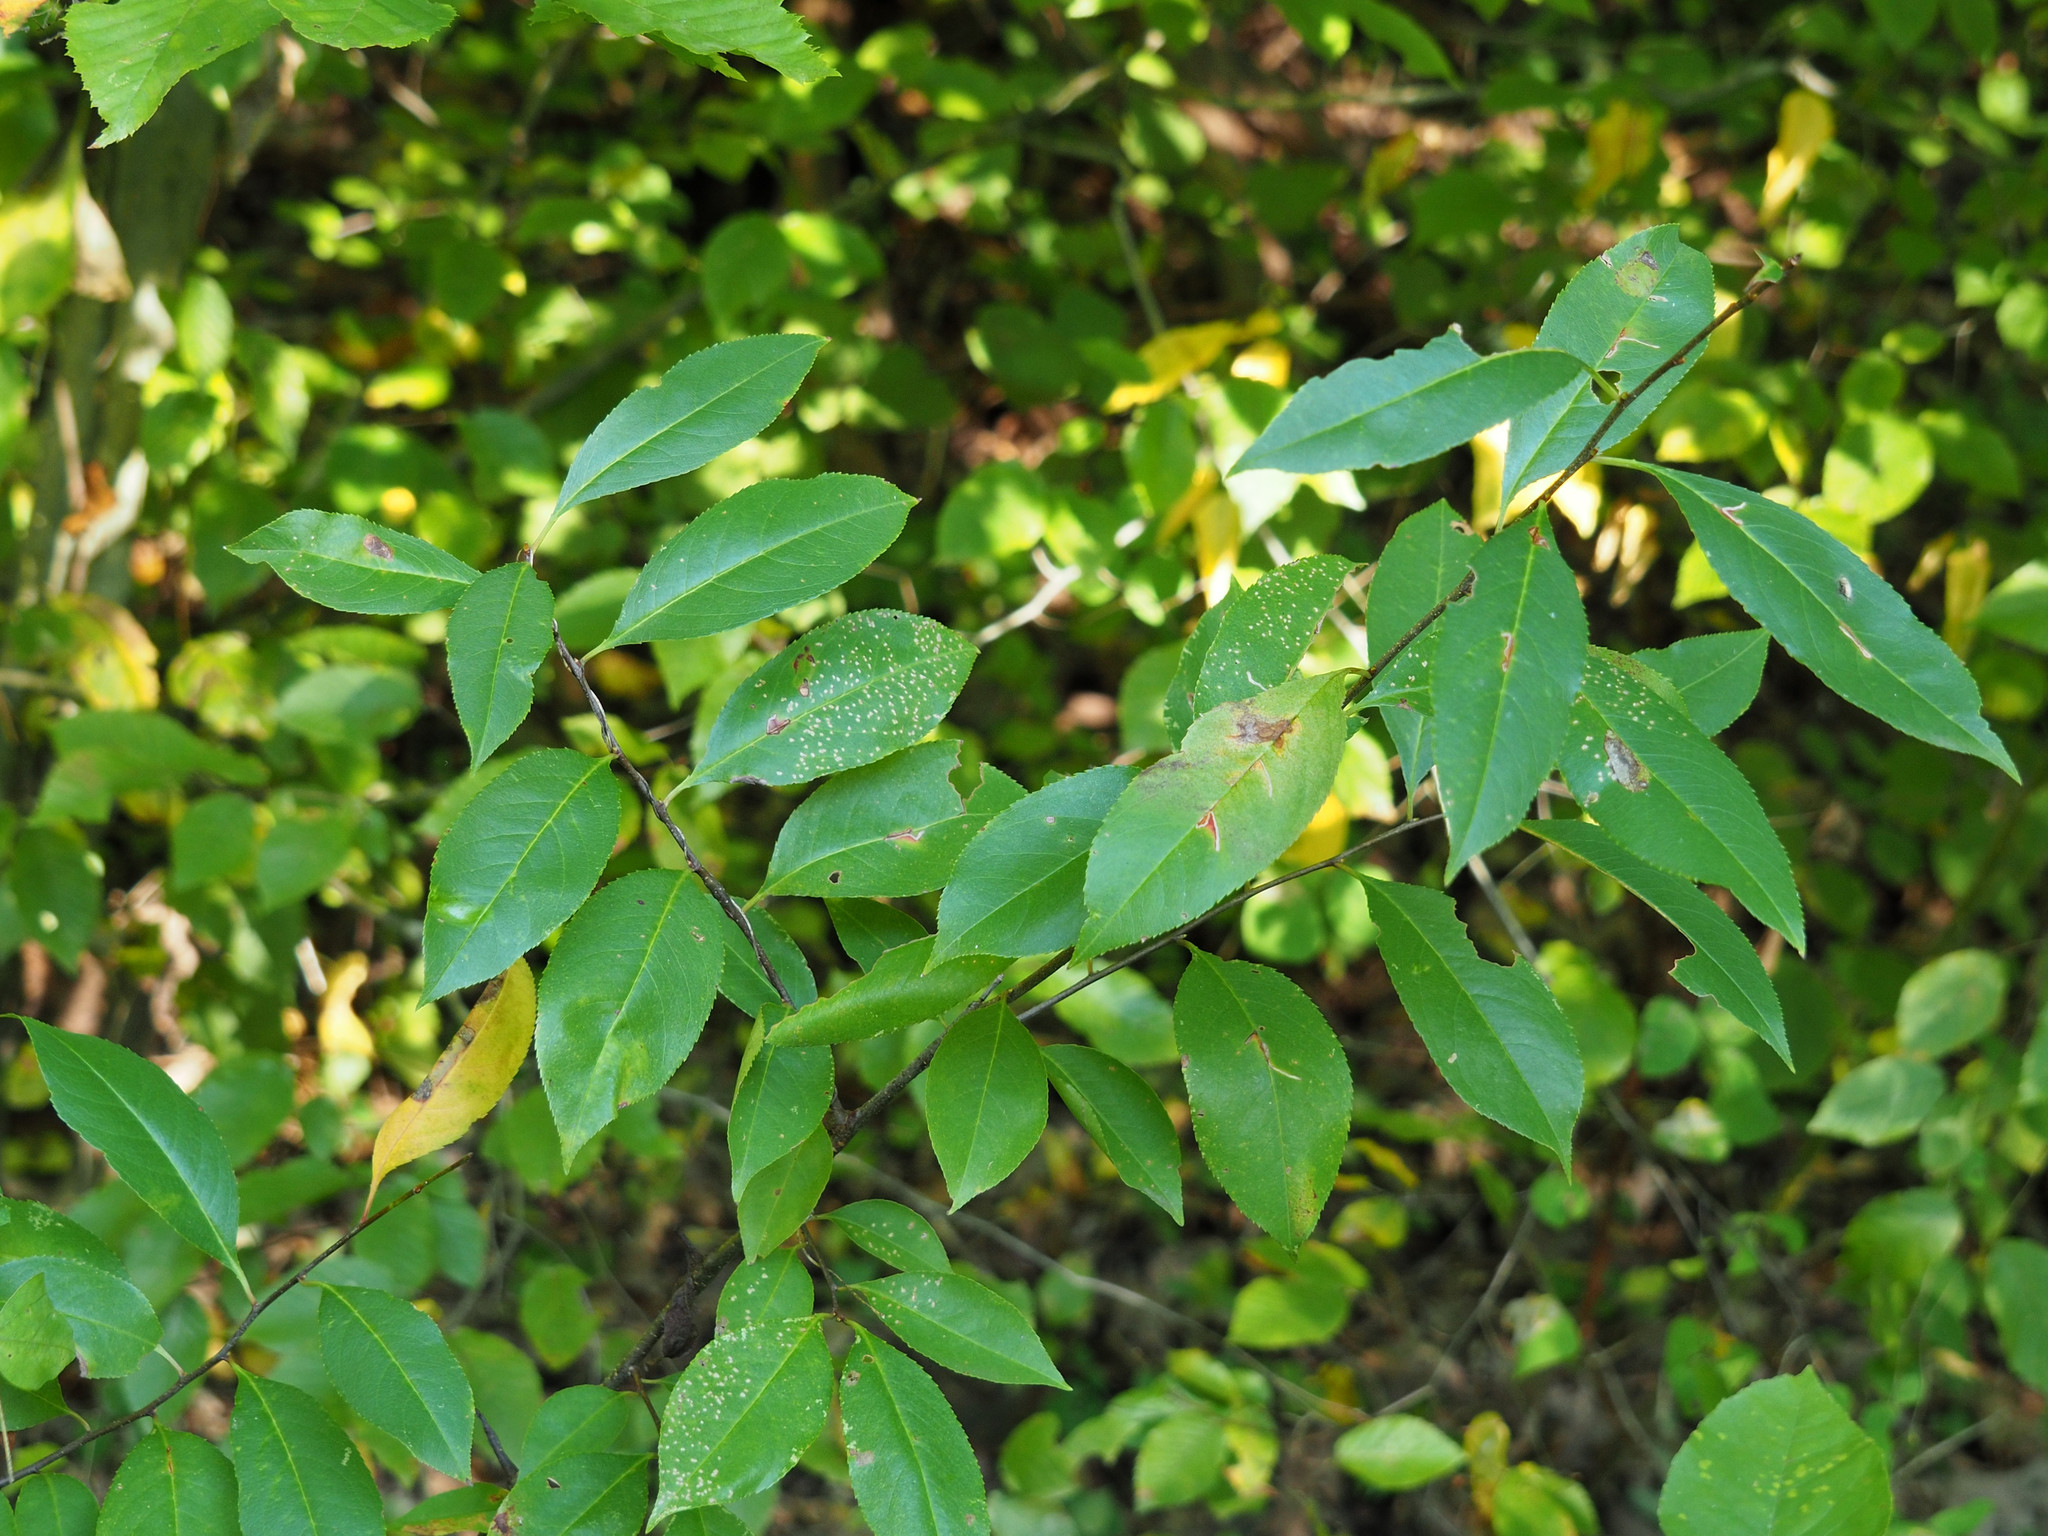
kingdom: Plantae
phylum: Tracheophyta
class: Magnoliopsida
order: Rosales
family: Rosaceae
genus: Prunus
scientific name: Prunus serotina
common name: Black cherry
